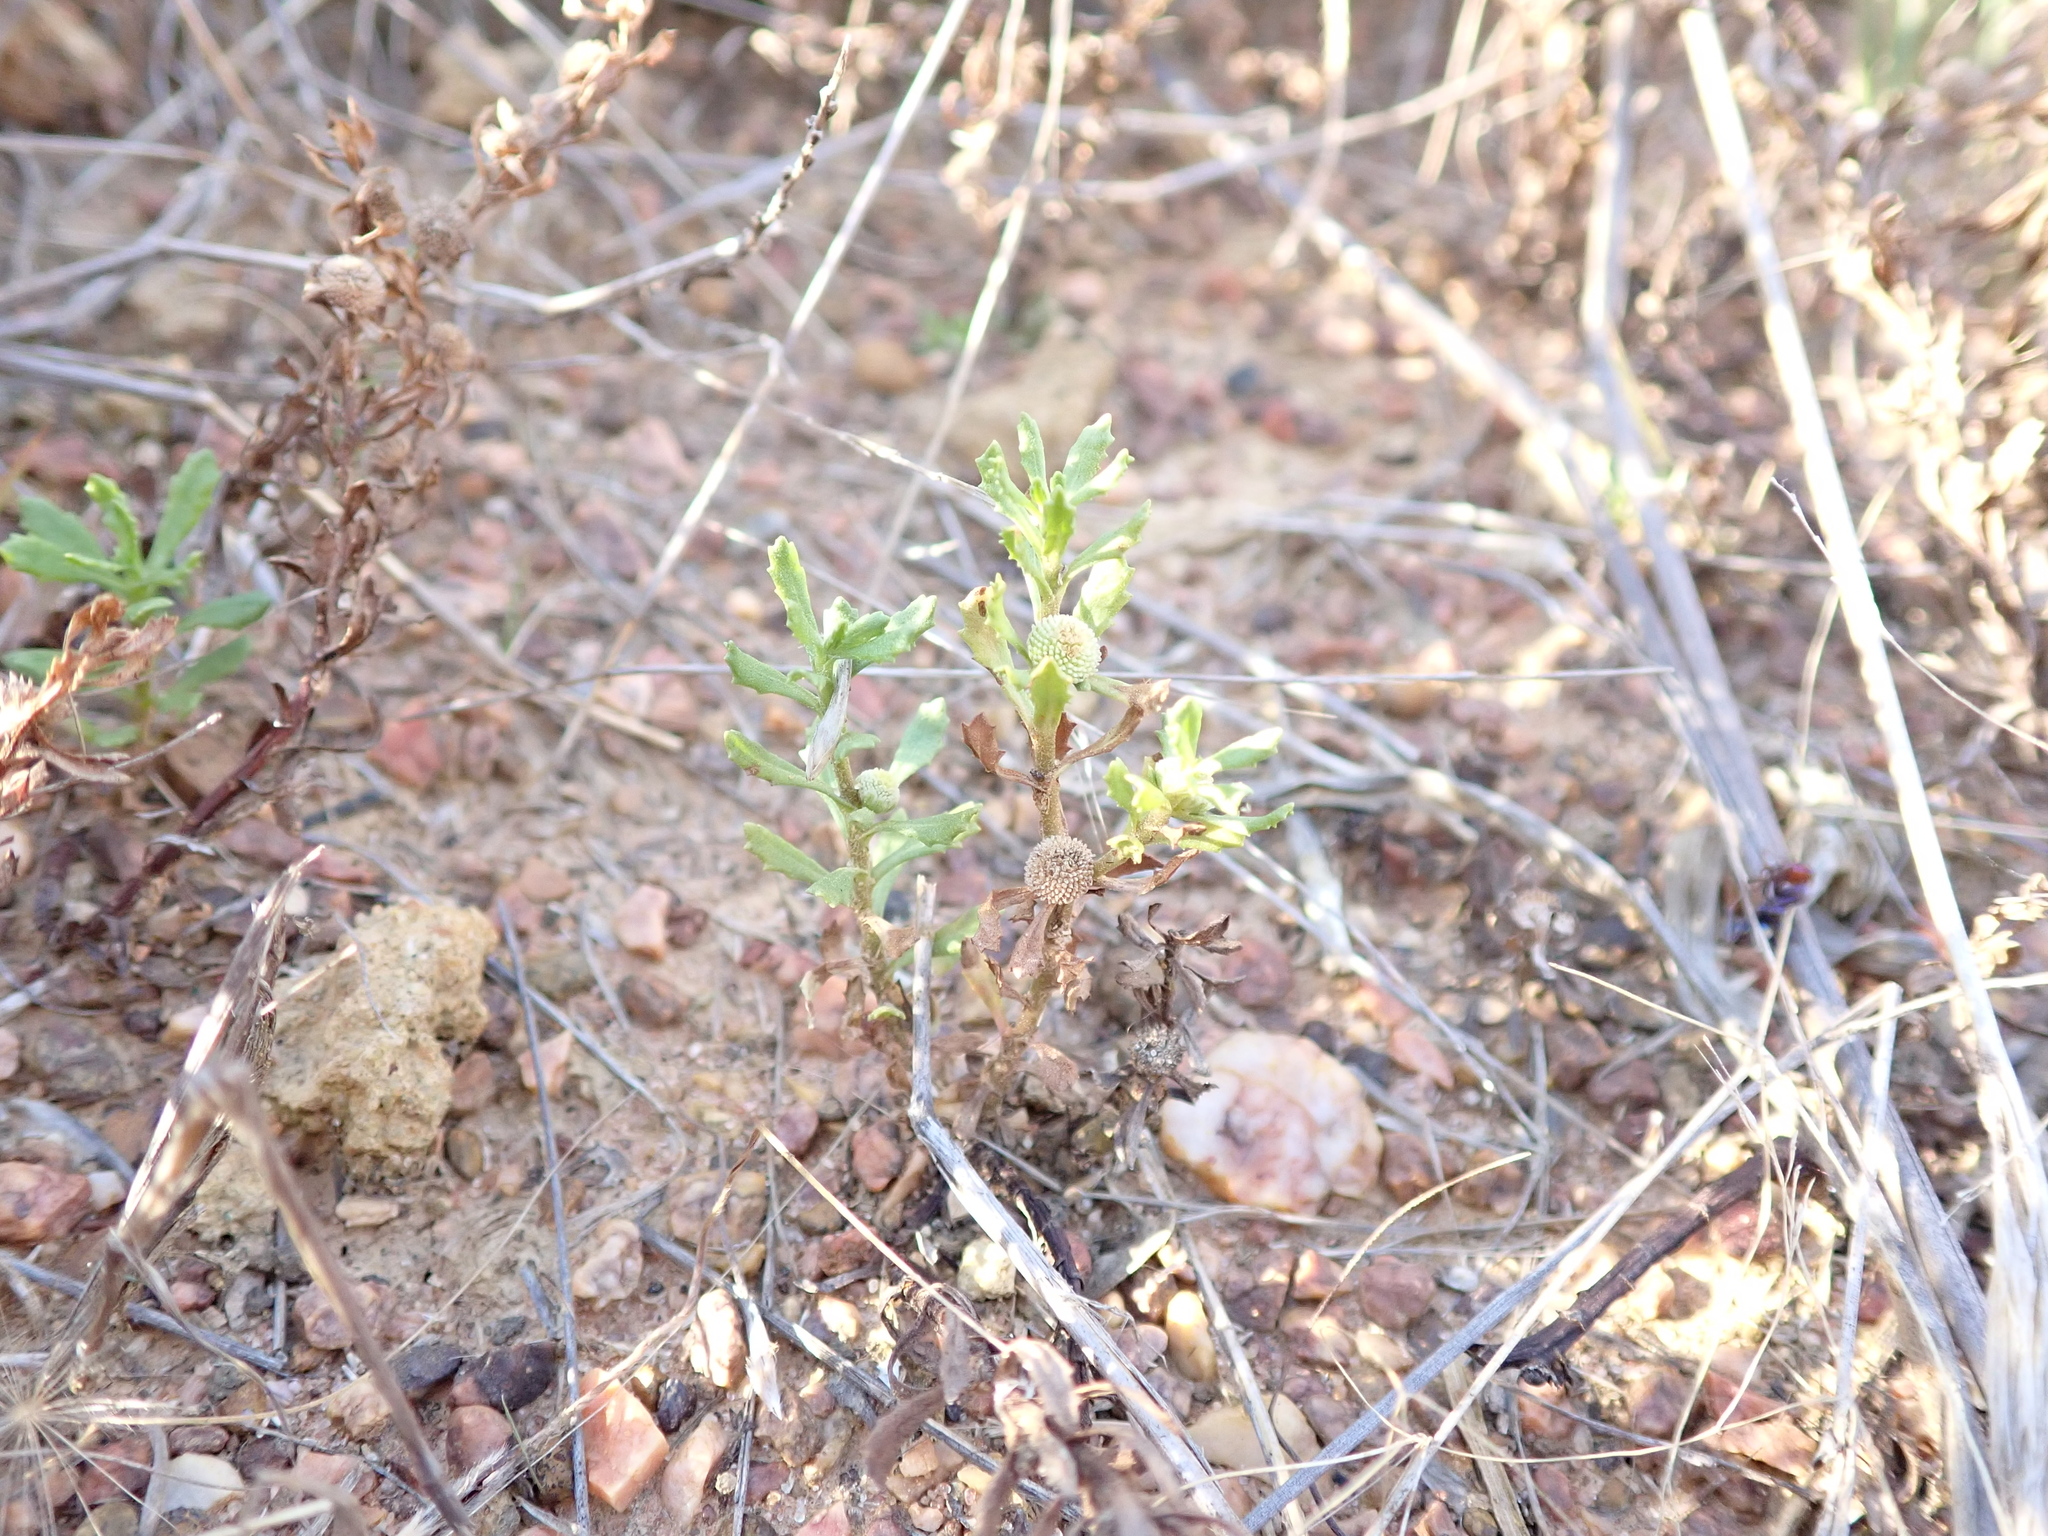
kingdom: Plantae
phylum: Tracheophyta
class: Magnoliopsida
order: Asterales
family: Asteraceae
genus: Centipeda
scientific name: Centipeda cunninghamii
